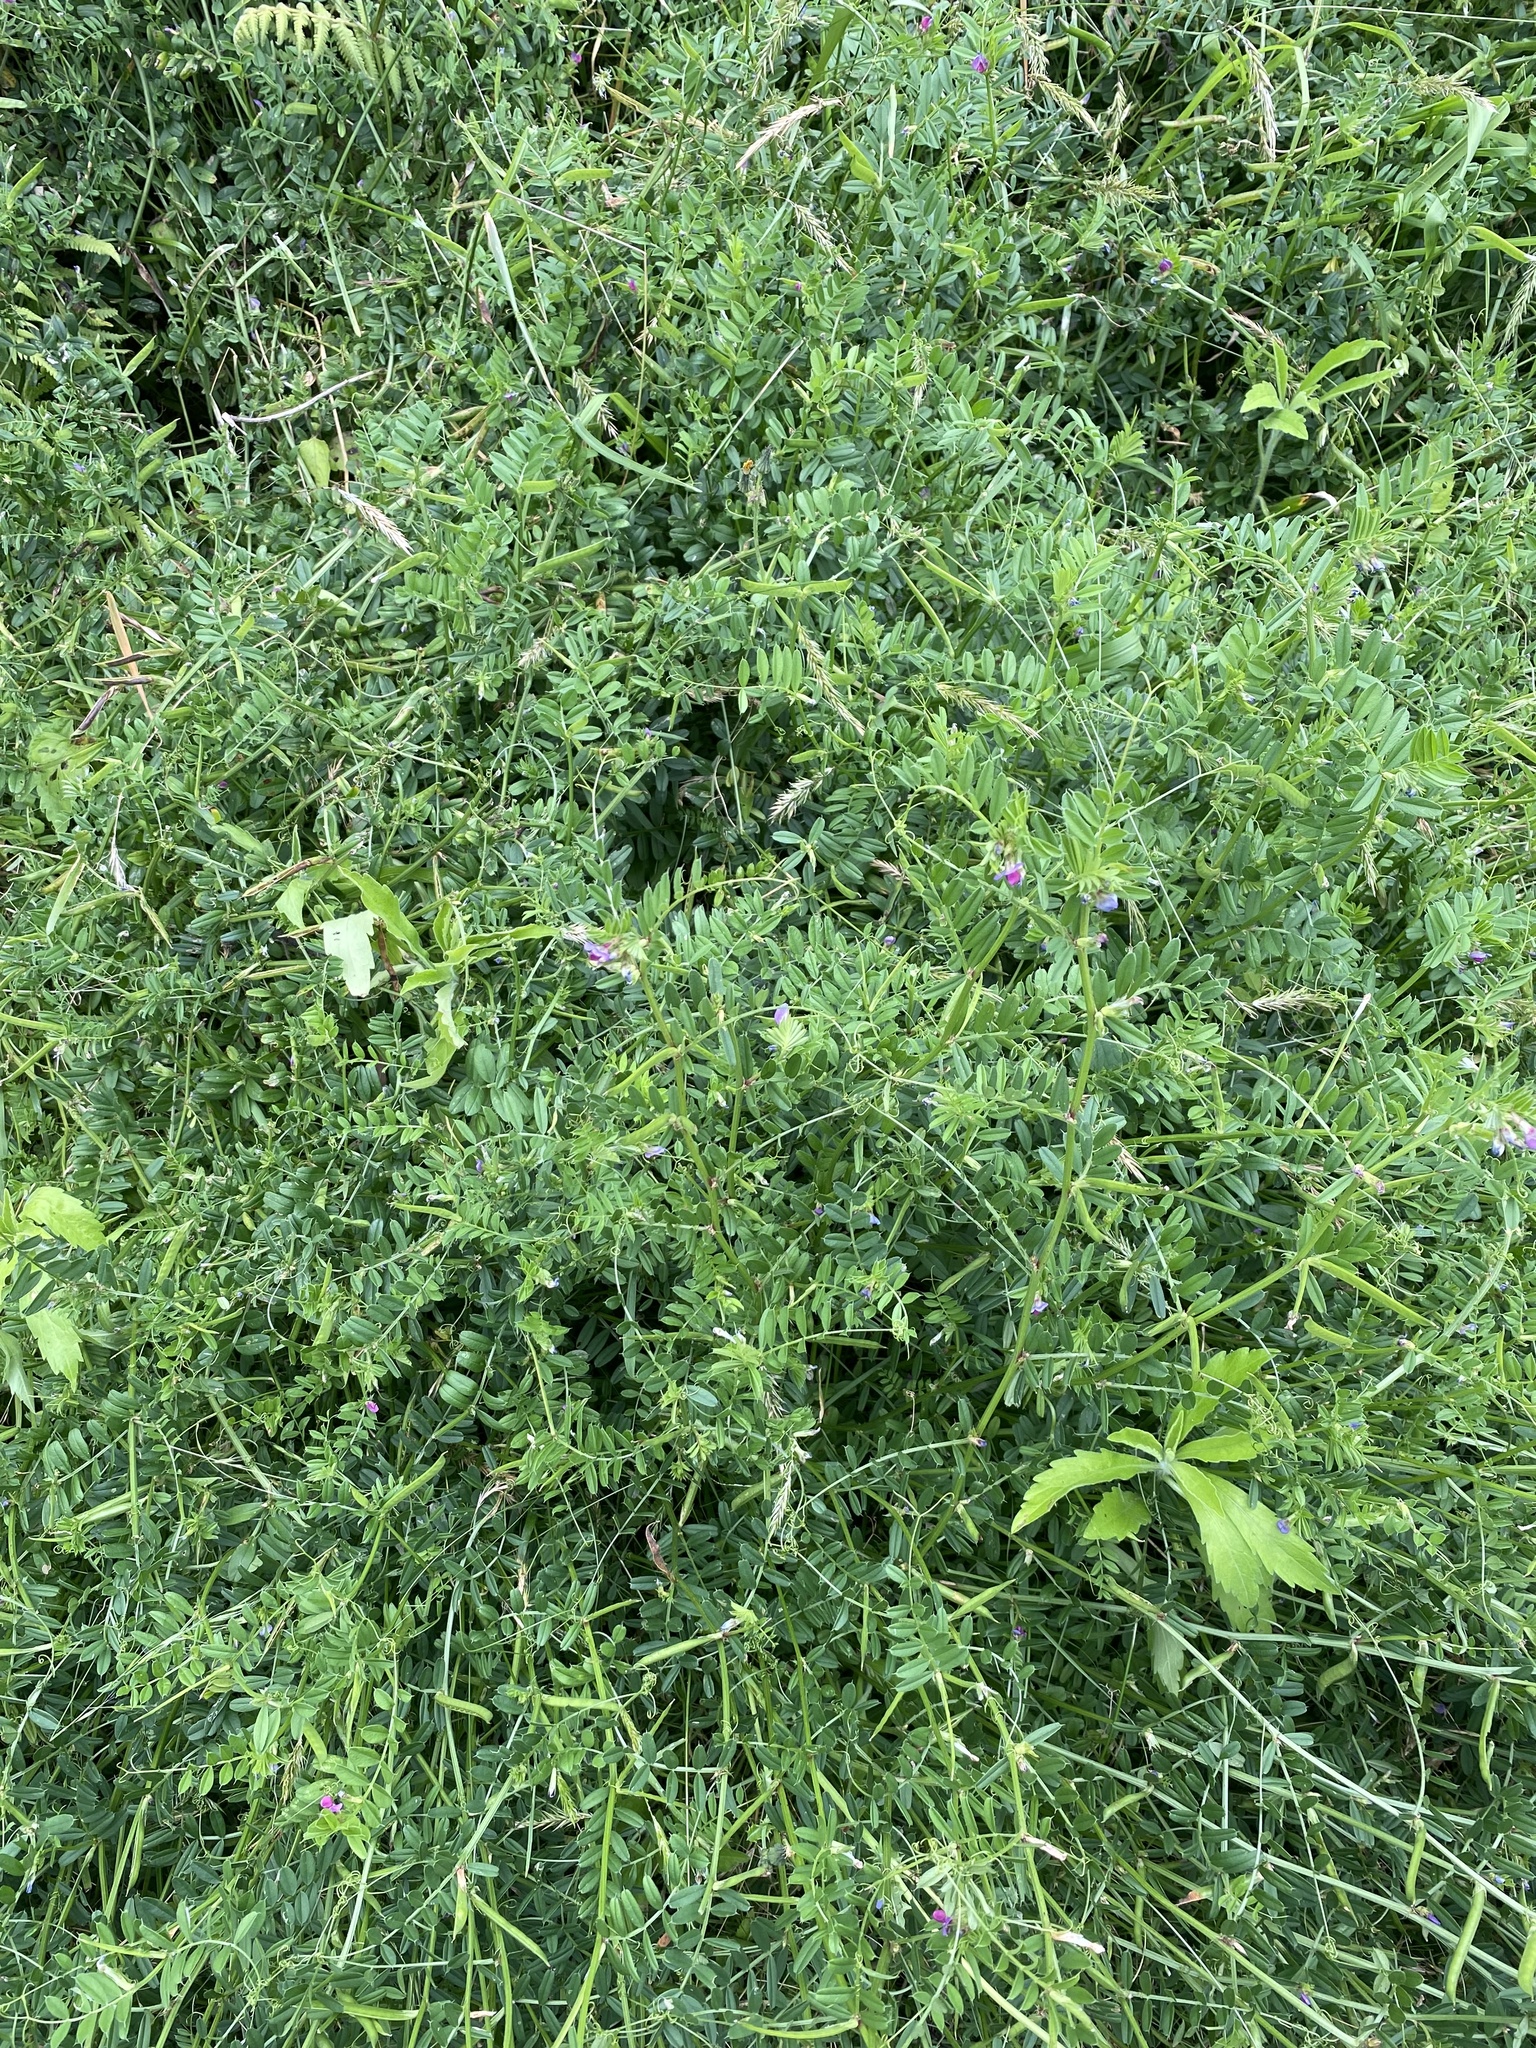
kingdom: Plantae
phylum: Tracheophyta
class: Magnoliopsida
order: Fabales
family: Fabaceae
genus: Vicia
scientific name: Vicia sativa
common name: Garden vetch
